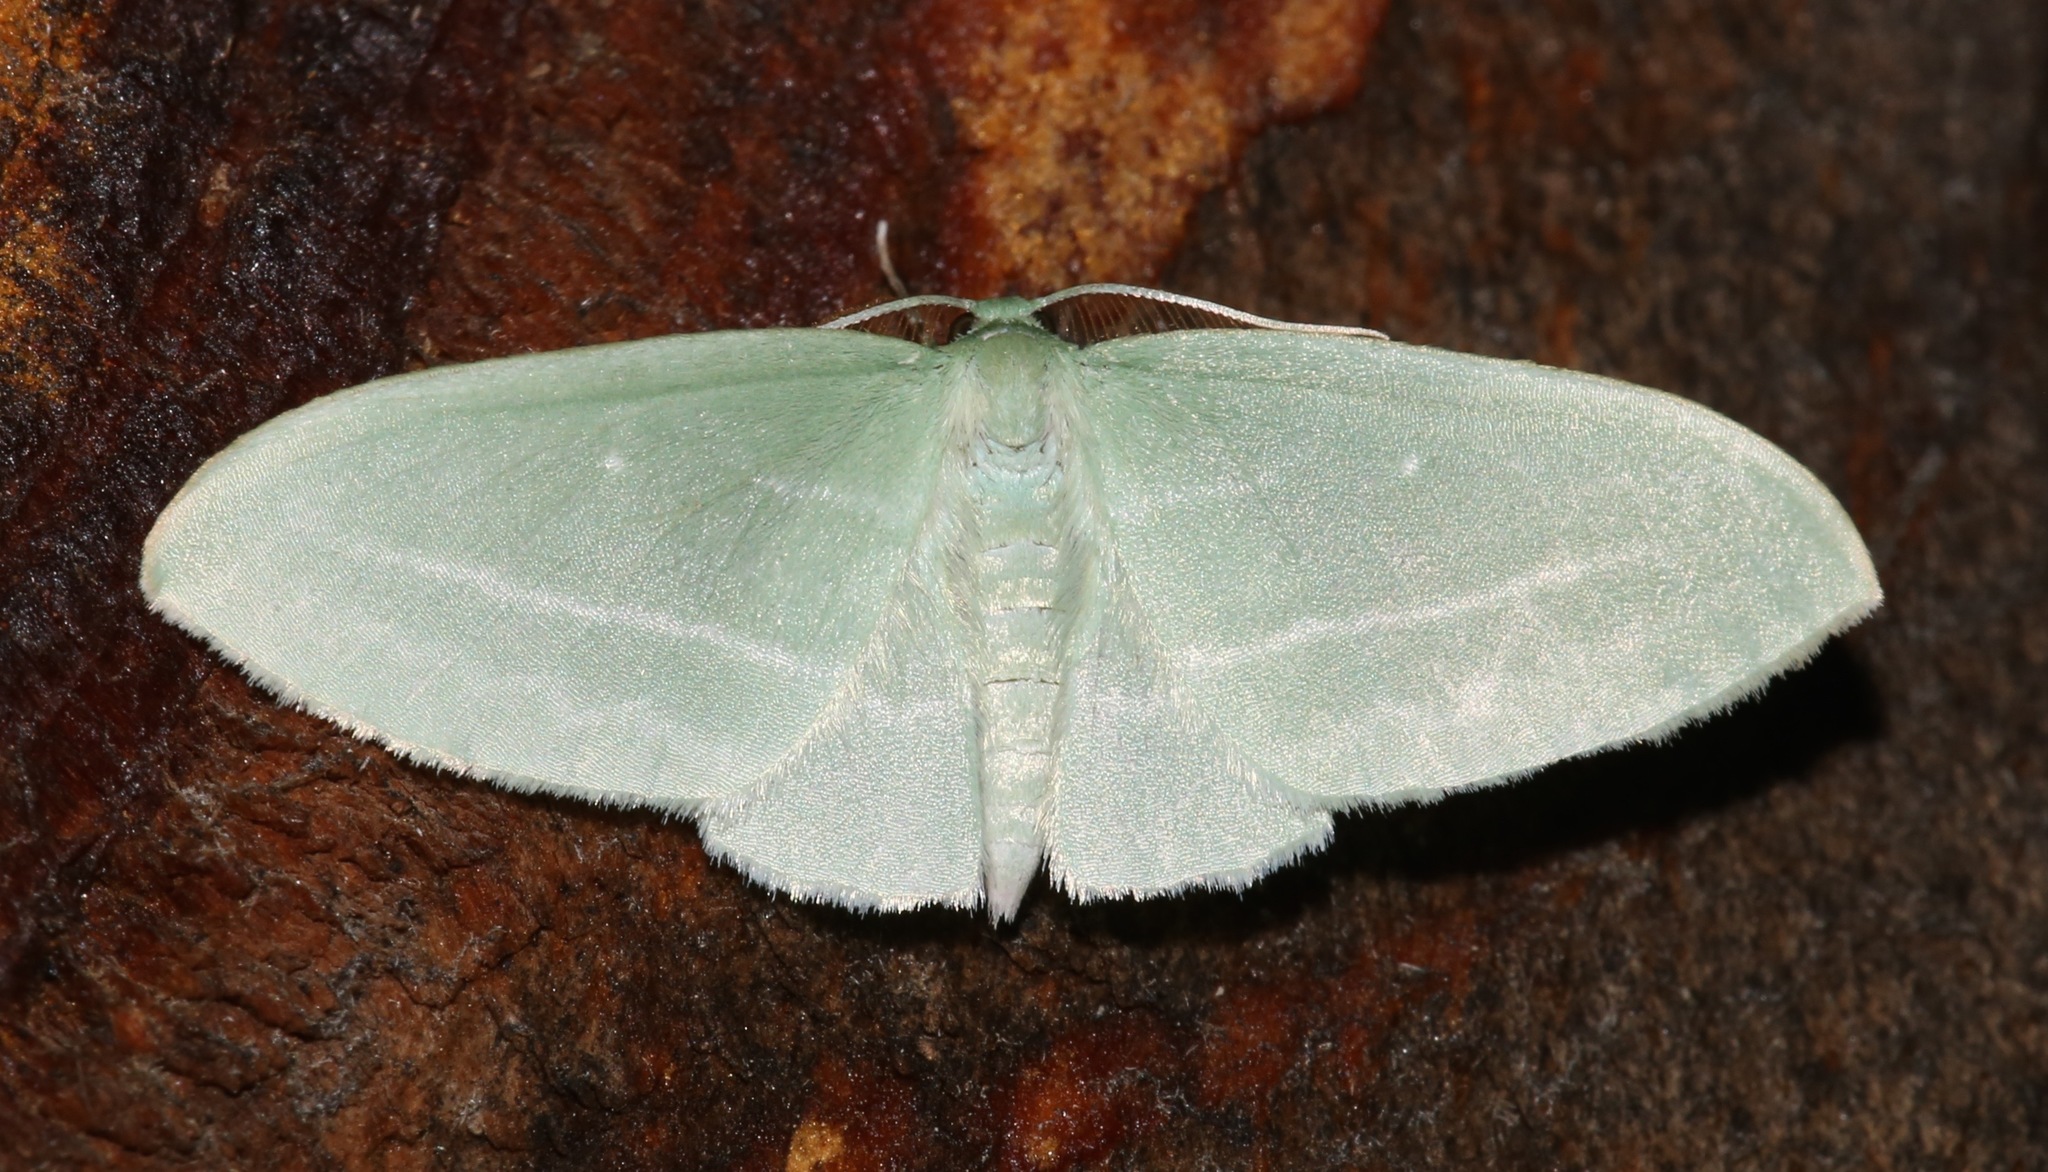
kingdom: Animalia
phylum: Arthropoda
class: Insecta
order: Lepidoptera
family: Geometridae
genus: Dyspteris
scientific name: Dyspteris abortivaria
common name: Bad-wing
